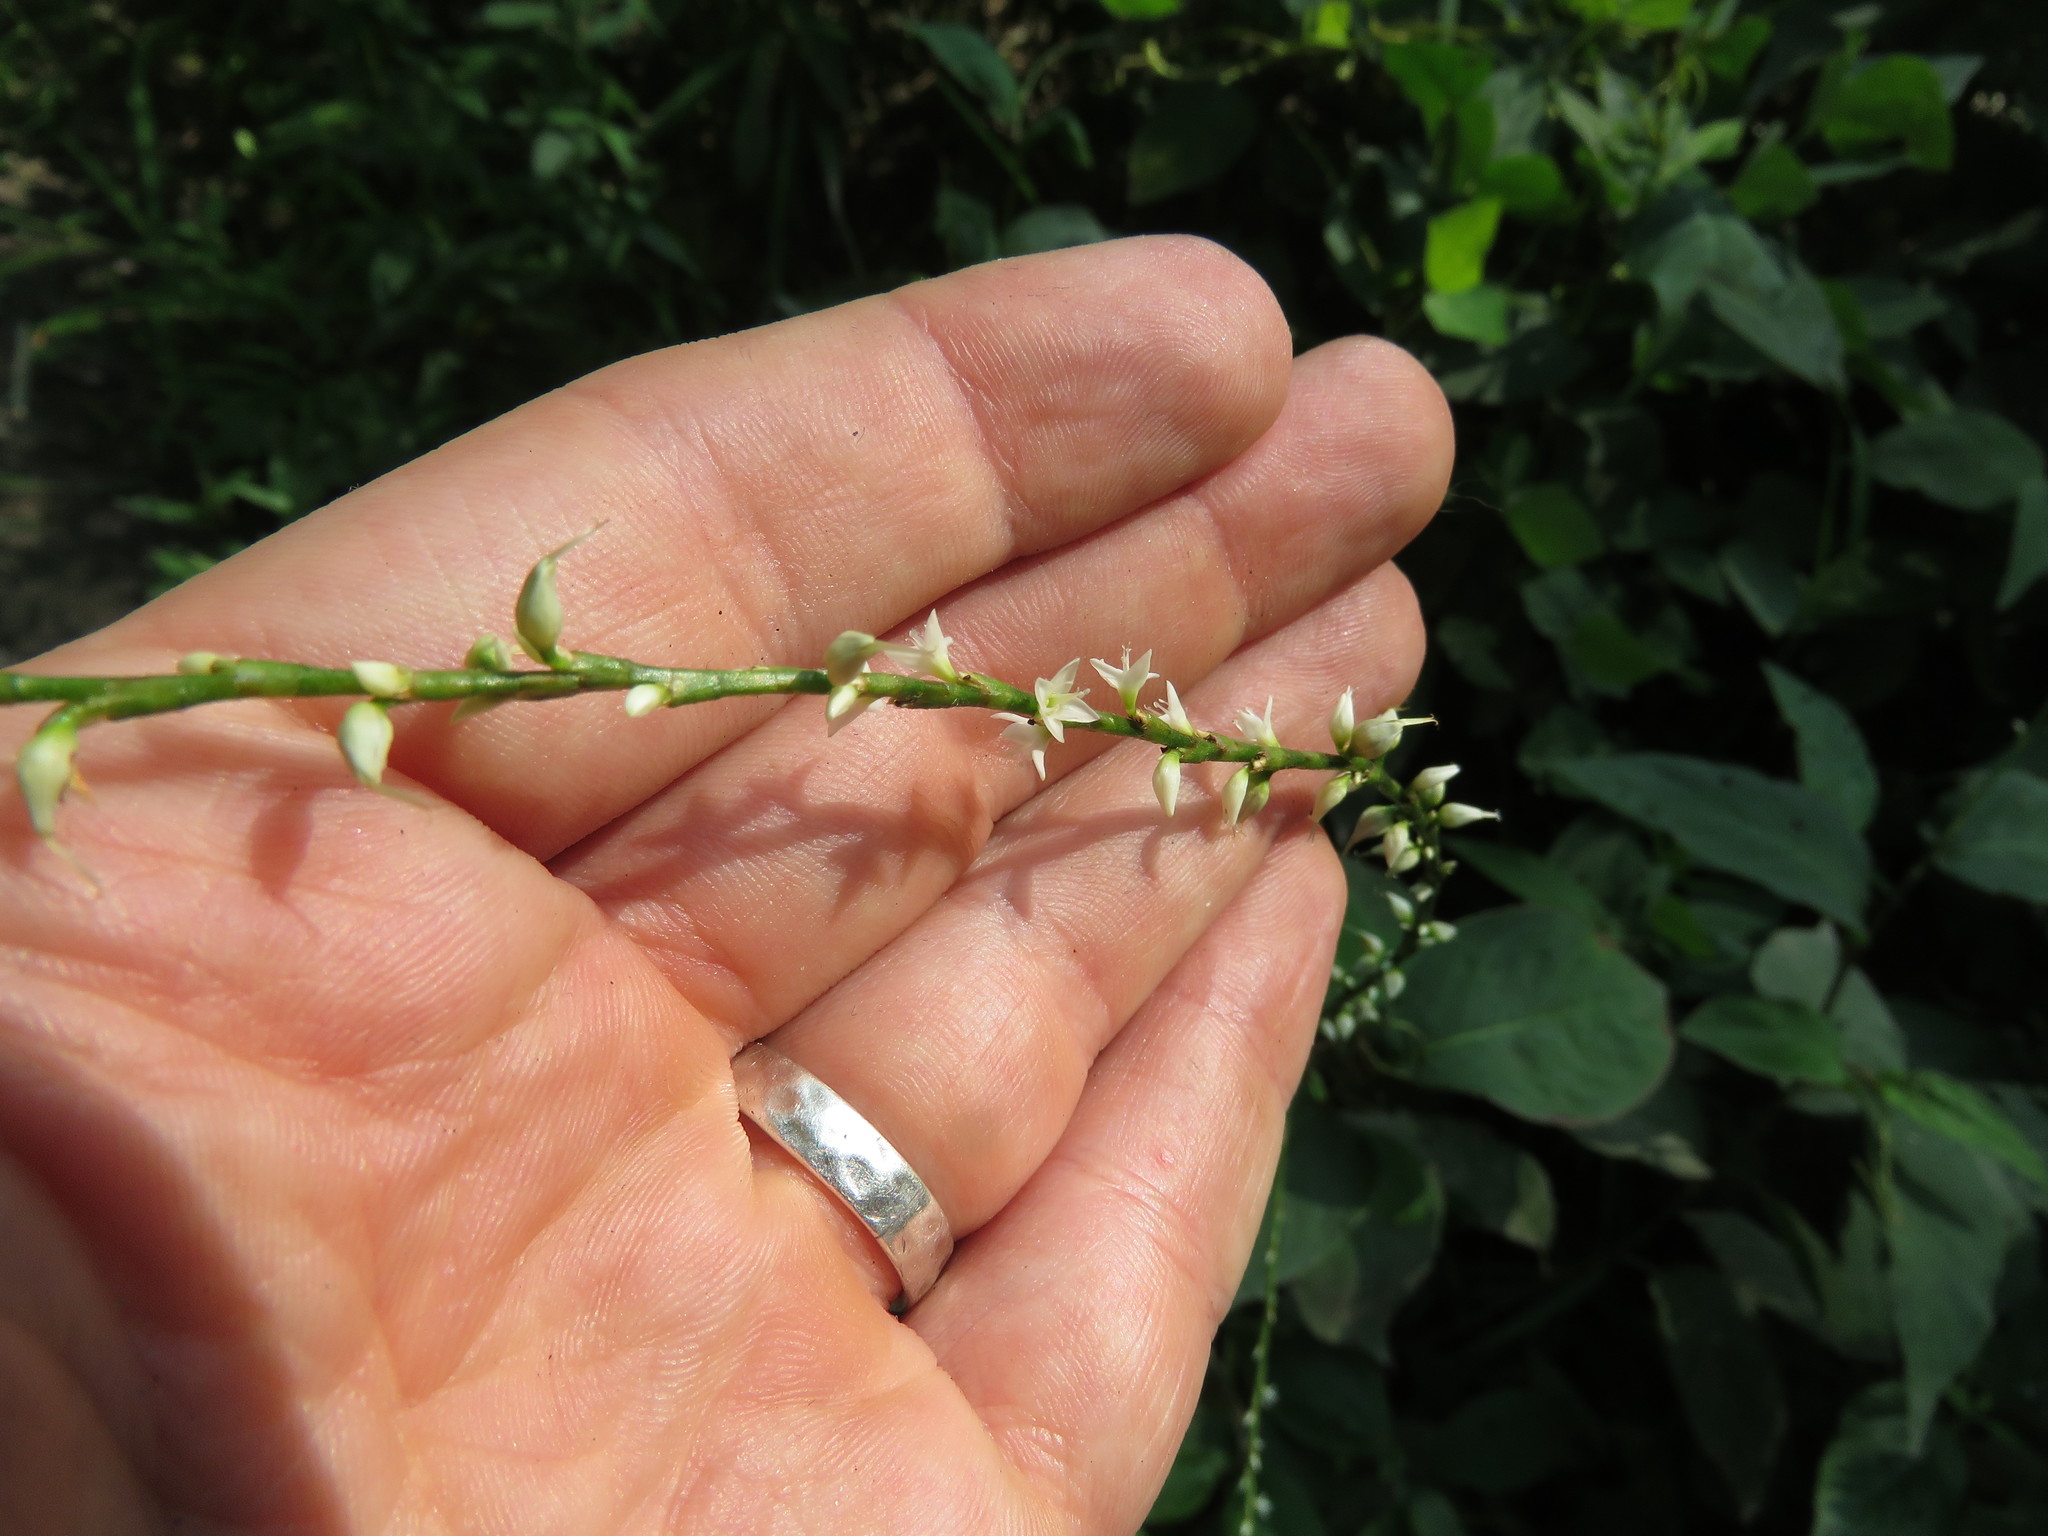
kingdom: Plantae
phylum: Tracheophyta
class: Magnoliopsida
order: Caryophyllales
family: Polygonaceae
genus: Persicaria
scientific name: Persicaria virginiana
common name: Jumpseed
